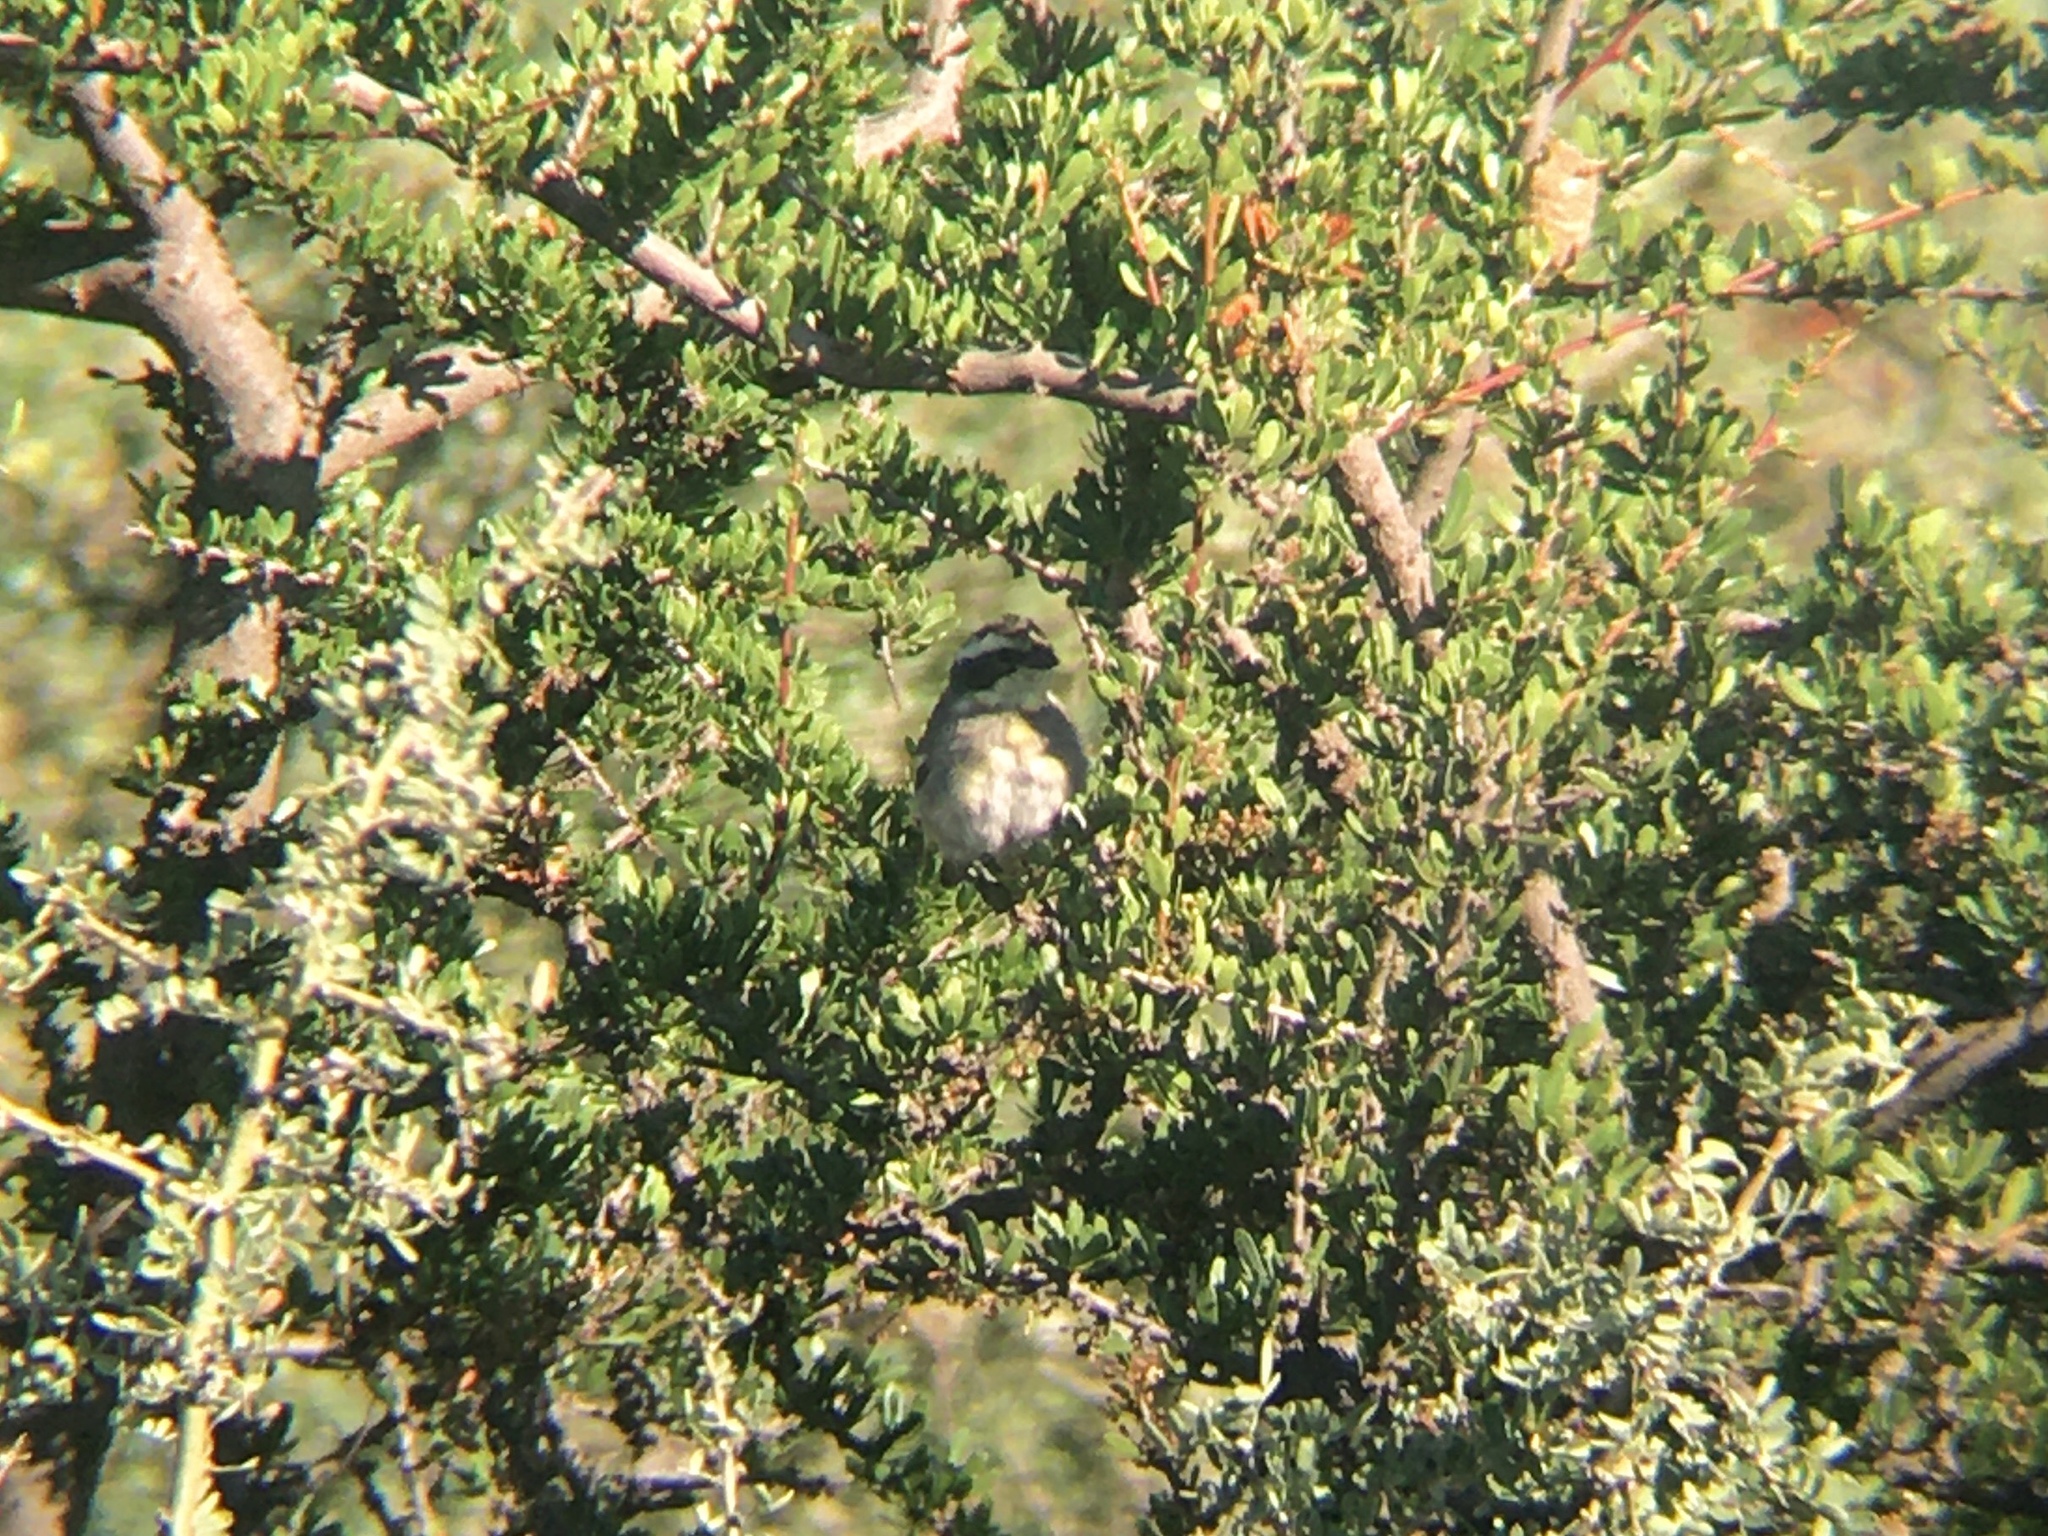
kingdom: Animalia
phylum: Chordata
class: Aves
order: Passeriformes
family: Thraupidae
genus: Microspingus
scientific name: Microspingus torquatus
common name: Ringed warbling-finch
